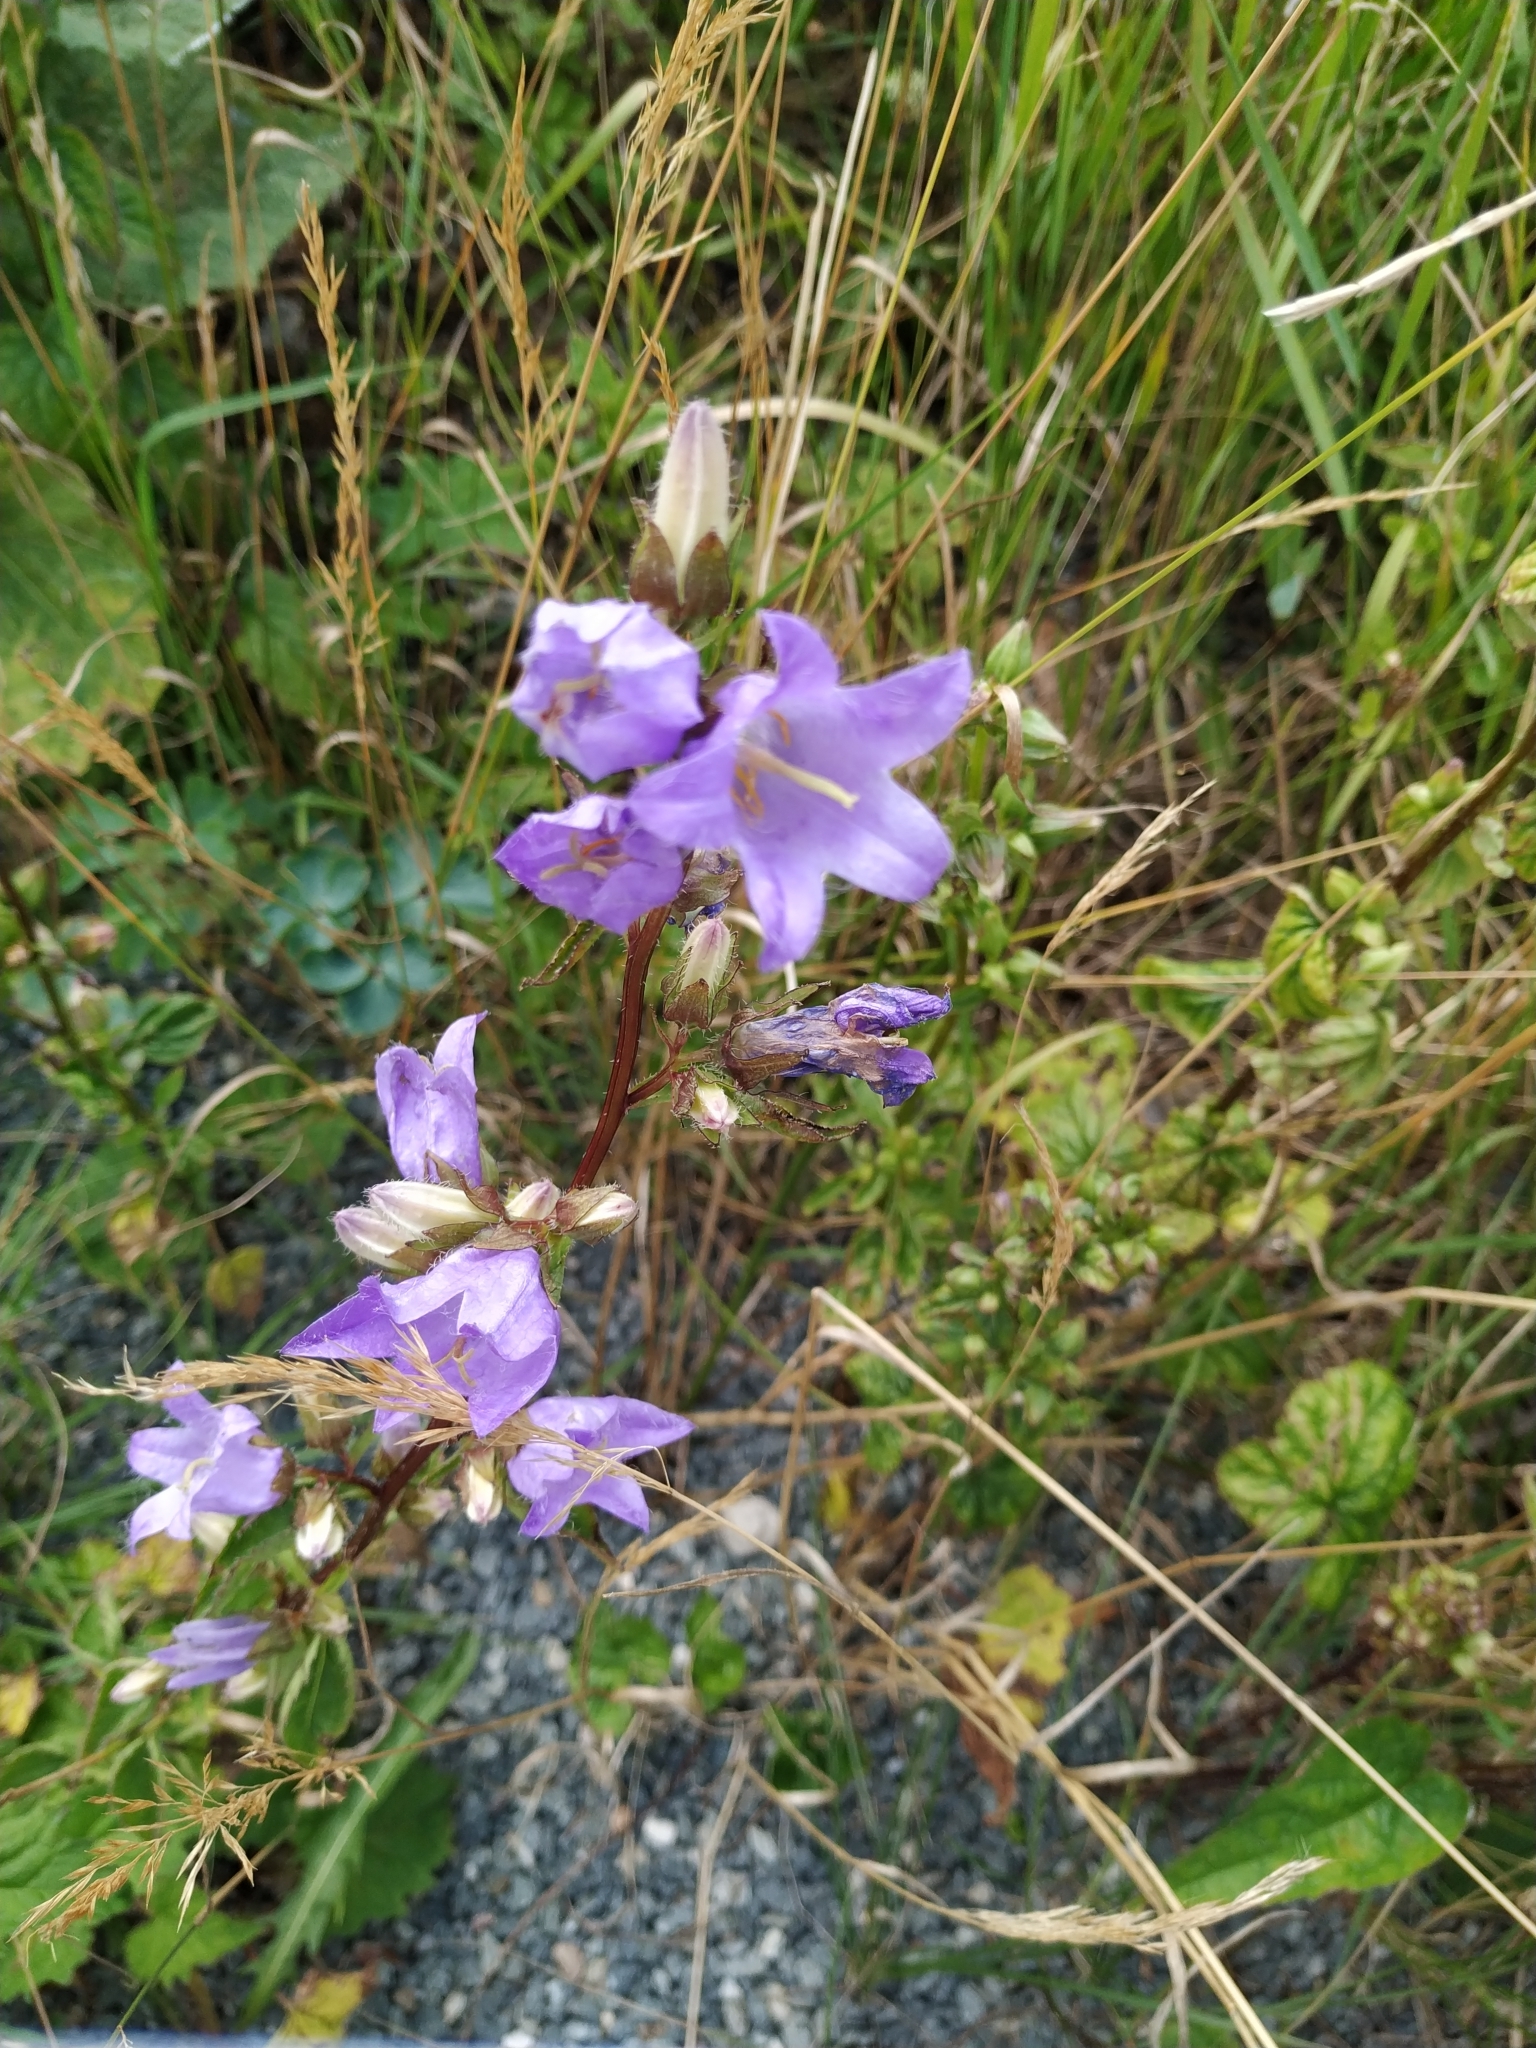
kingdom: Plantae
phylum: Tracheophyta
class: Magnoliopsida
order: Asterales
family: Campanulaceae
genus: Campanula
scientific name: Campanula trachelium
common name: Nettle-leaved bellflower
